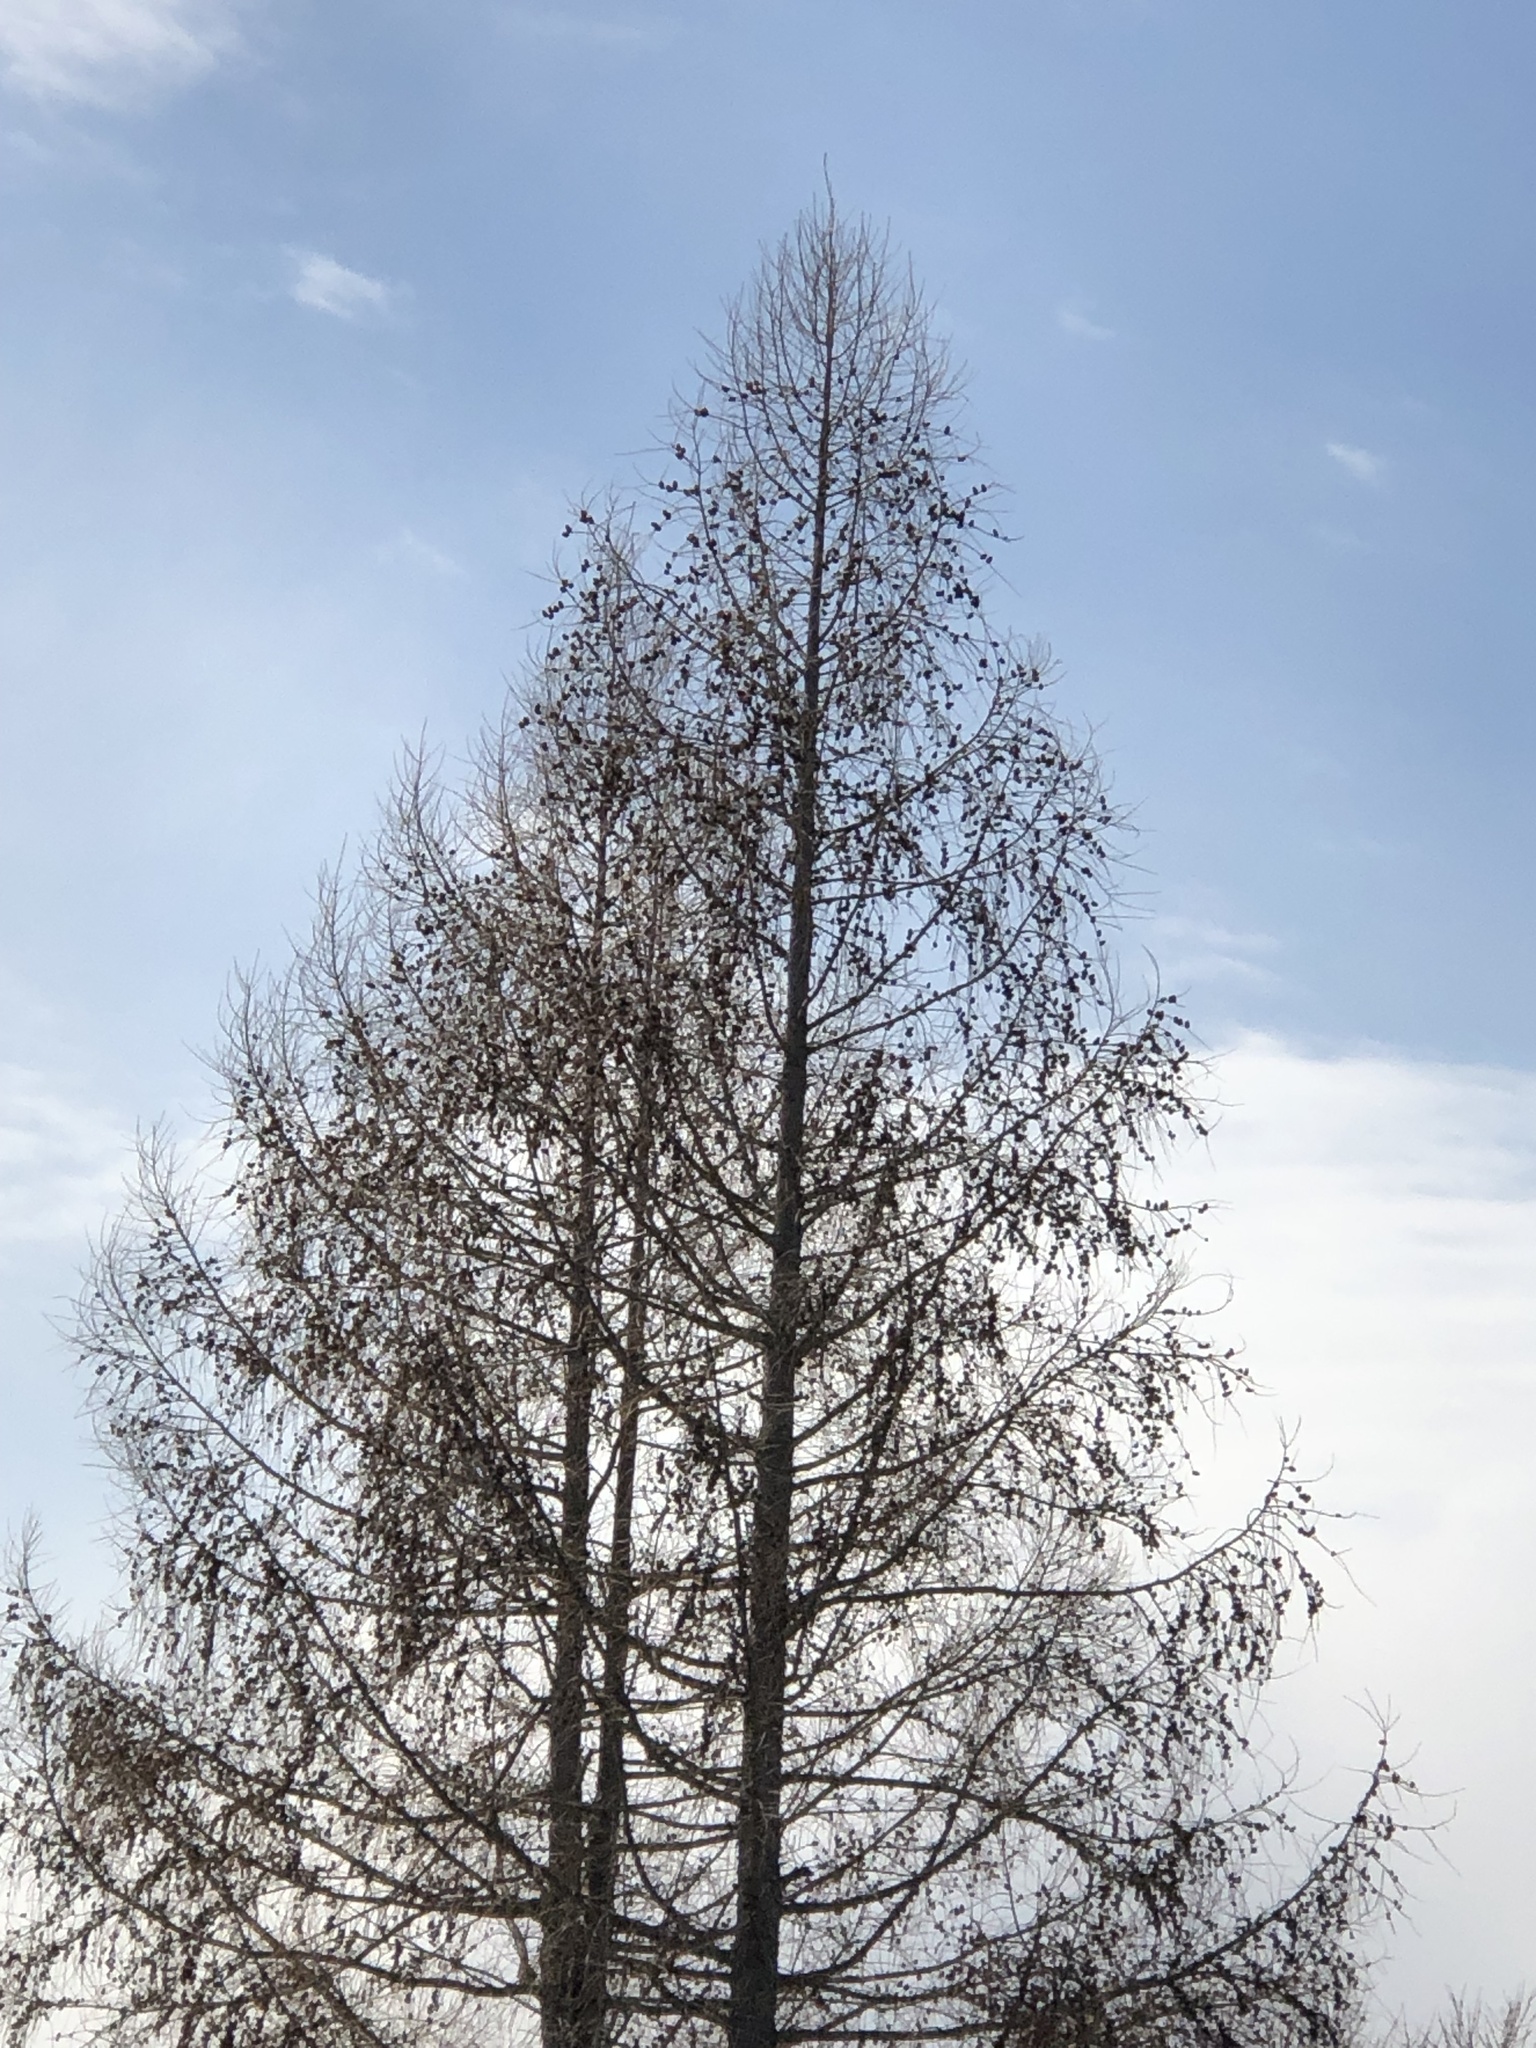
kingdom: Plantae
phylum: Tracheophyta
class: Pinopsida
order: Pinales
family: Pinaceae
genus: Larix
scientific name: Larix decidua
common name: European larch
